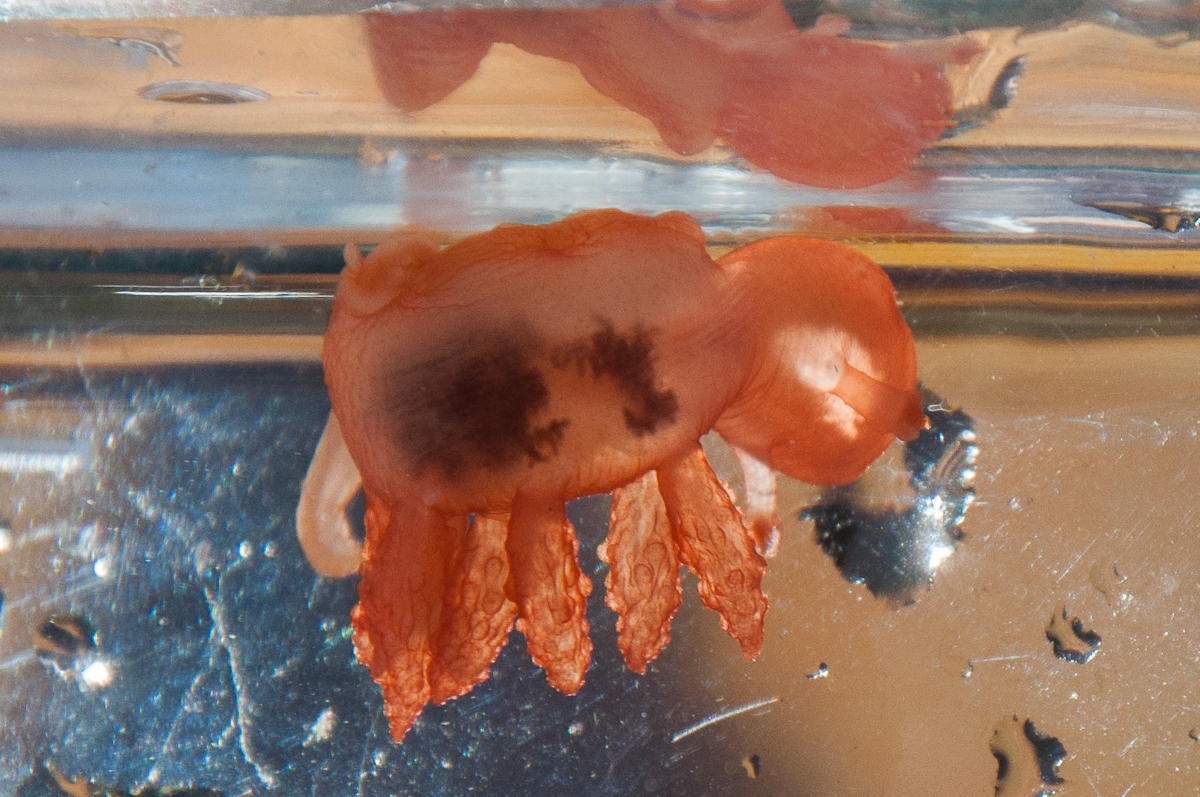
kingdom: Animalia
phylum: Mollusca
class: Gastropoda
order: Nudibranchia
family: Tethydidae
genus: Melibe
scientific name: Melibe rosea
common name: Cowled nudibranch
